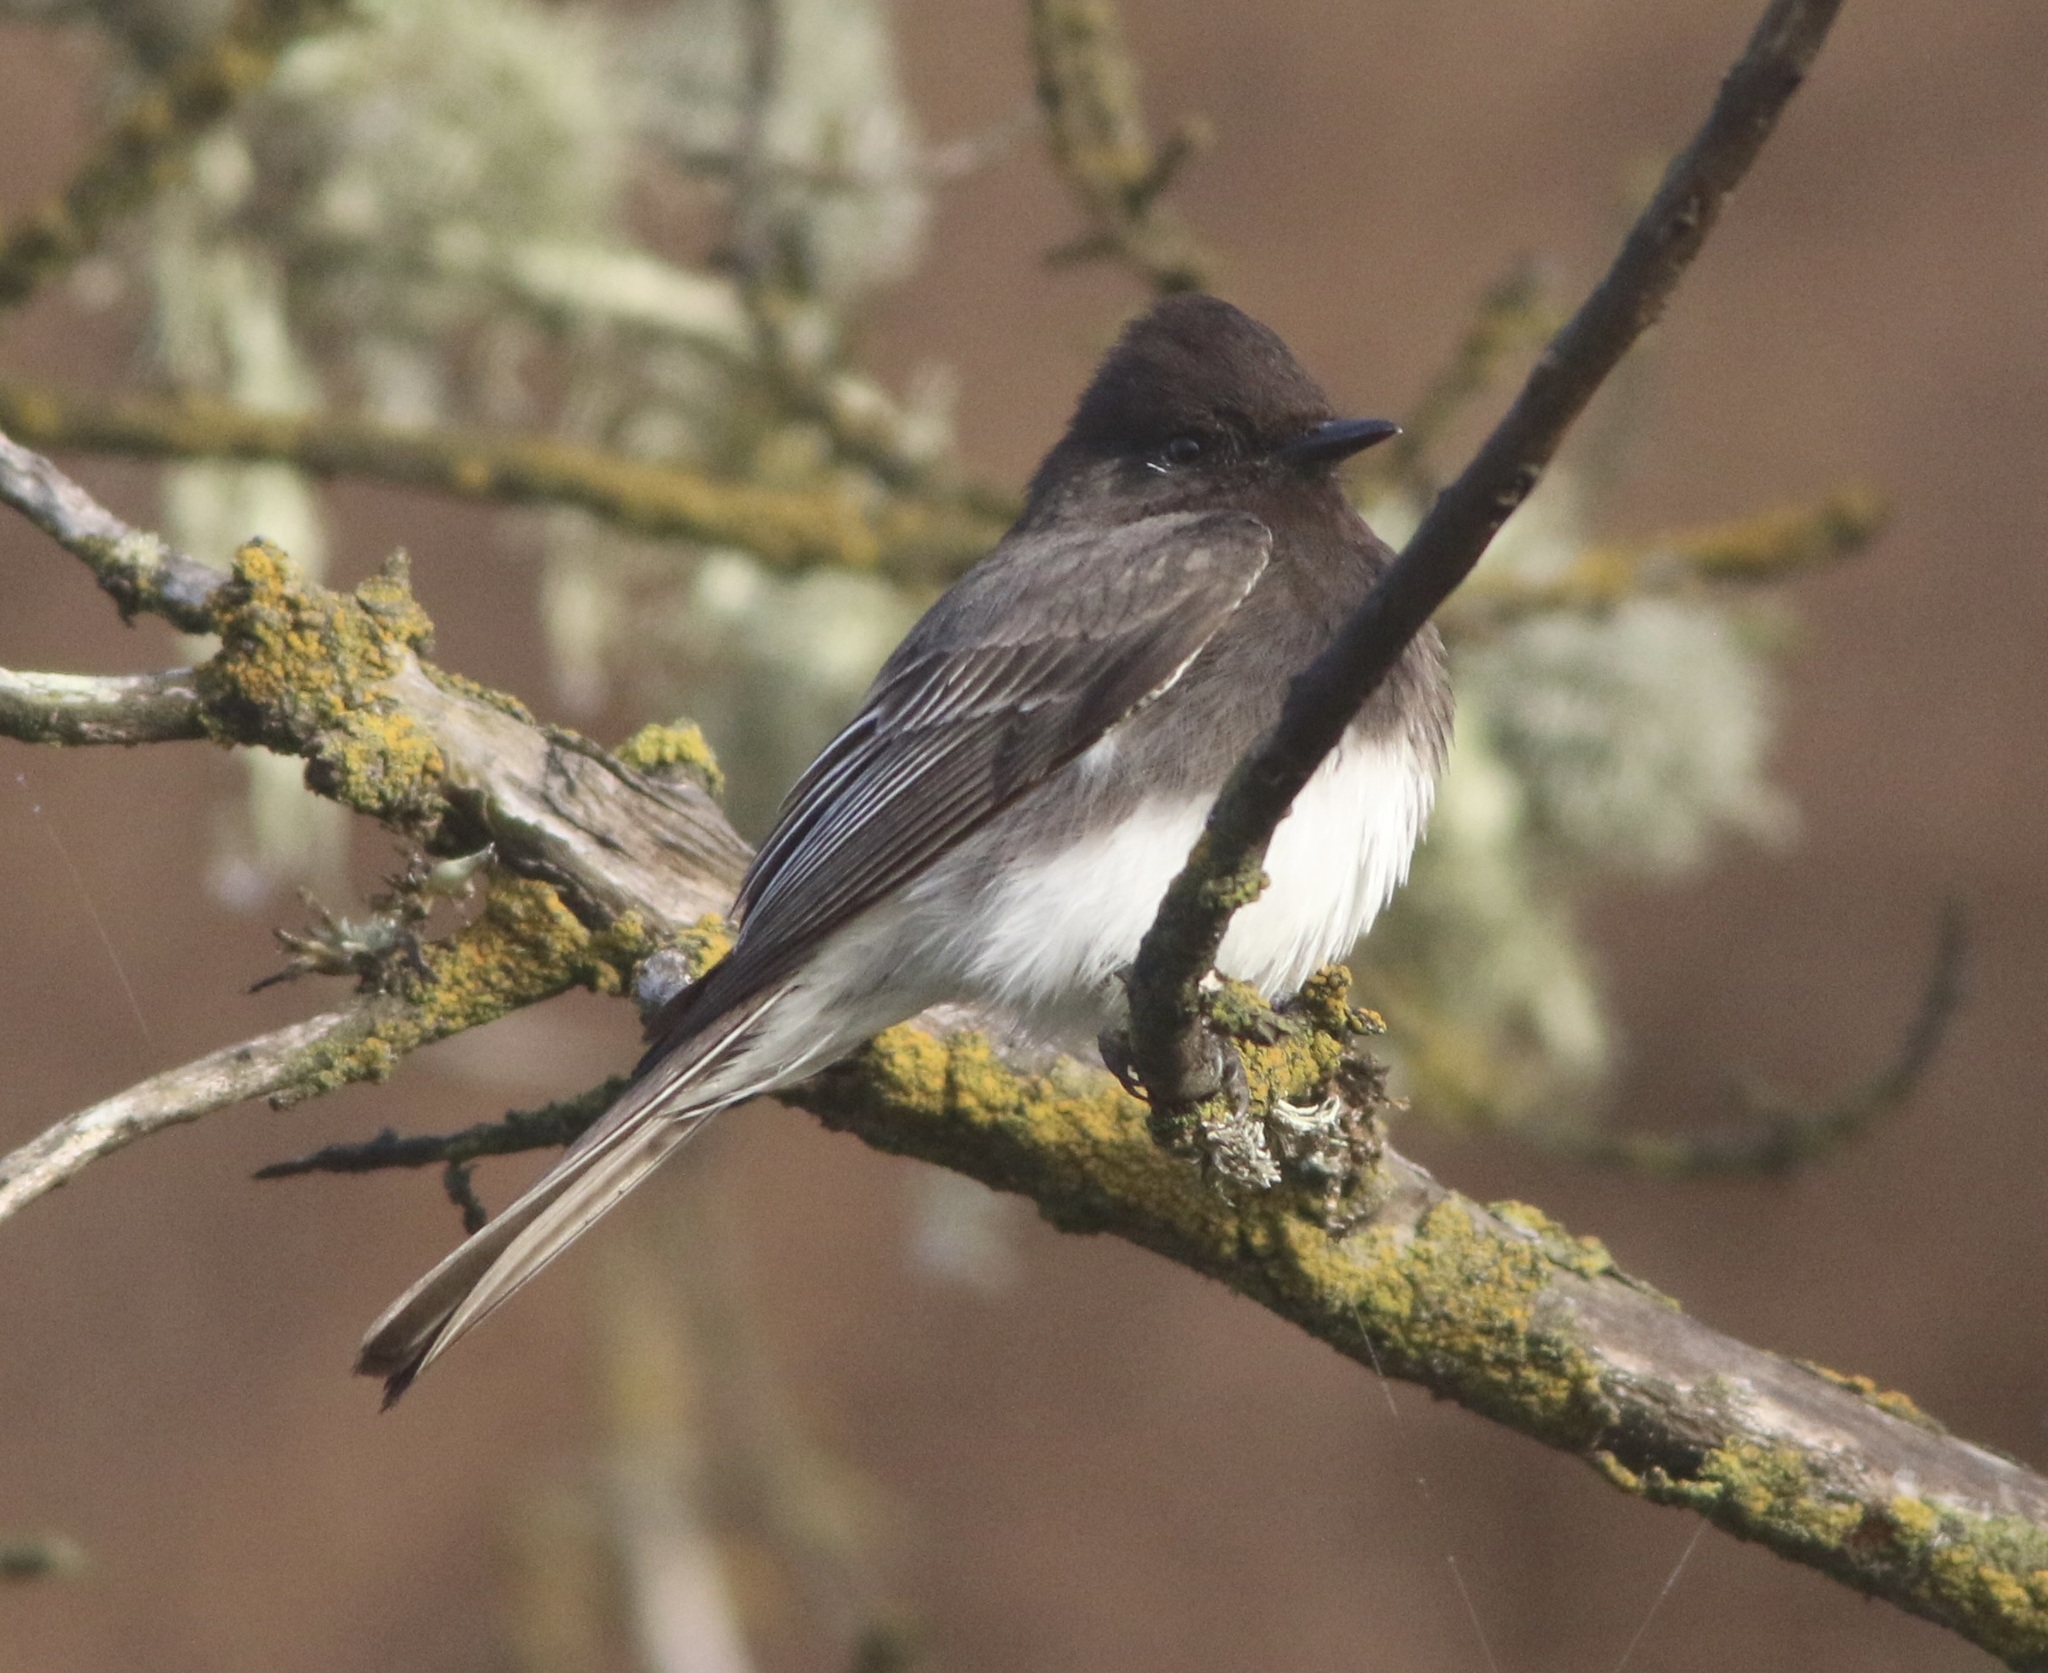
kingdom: Animalia
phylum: Chordata
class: Aves
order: Passeriformes
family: Tyrannidae
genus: Sayornis
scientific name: Sayornis nigricans
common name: Black phoebe
